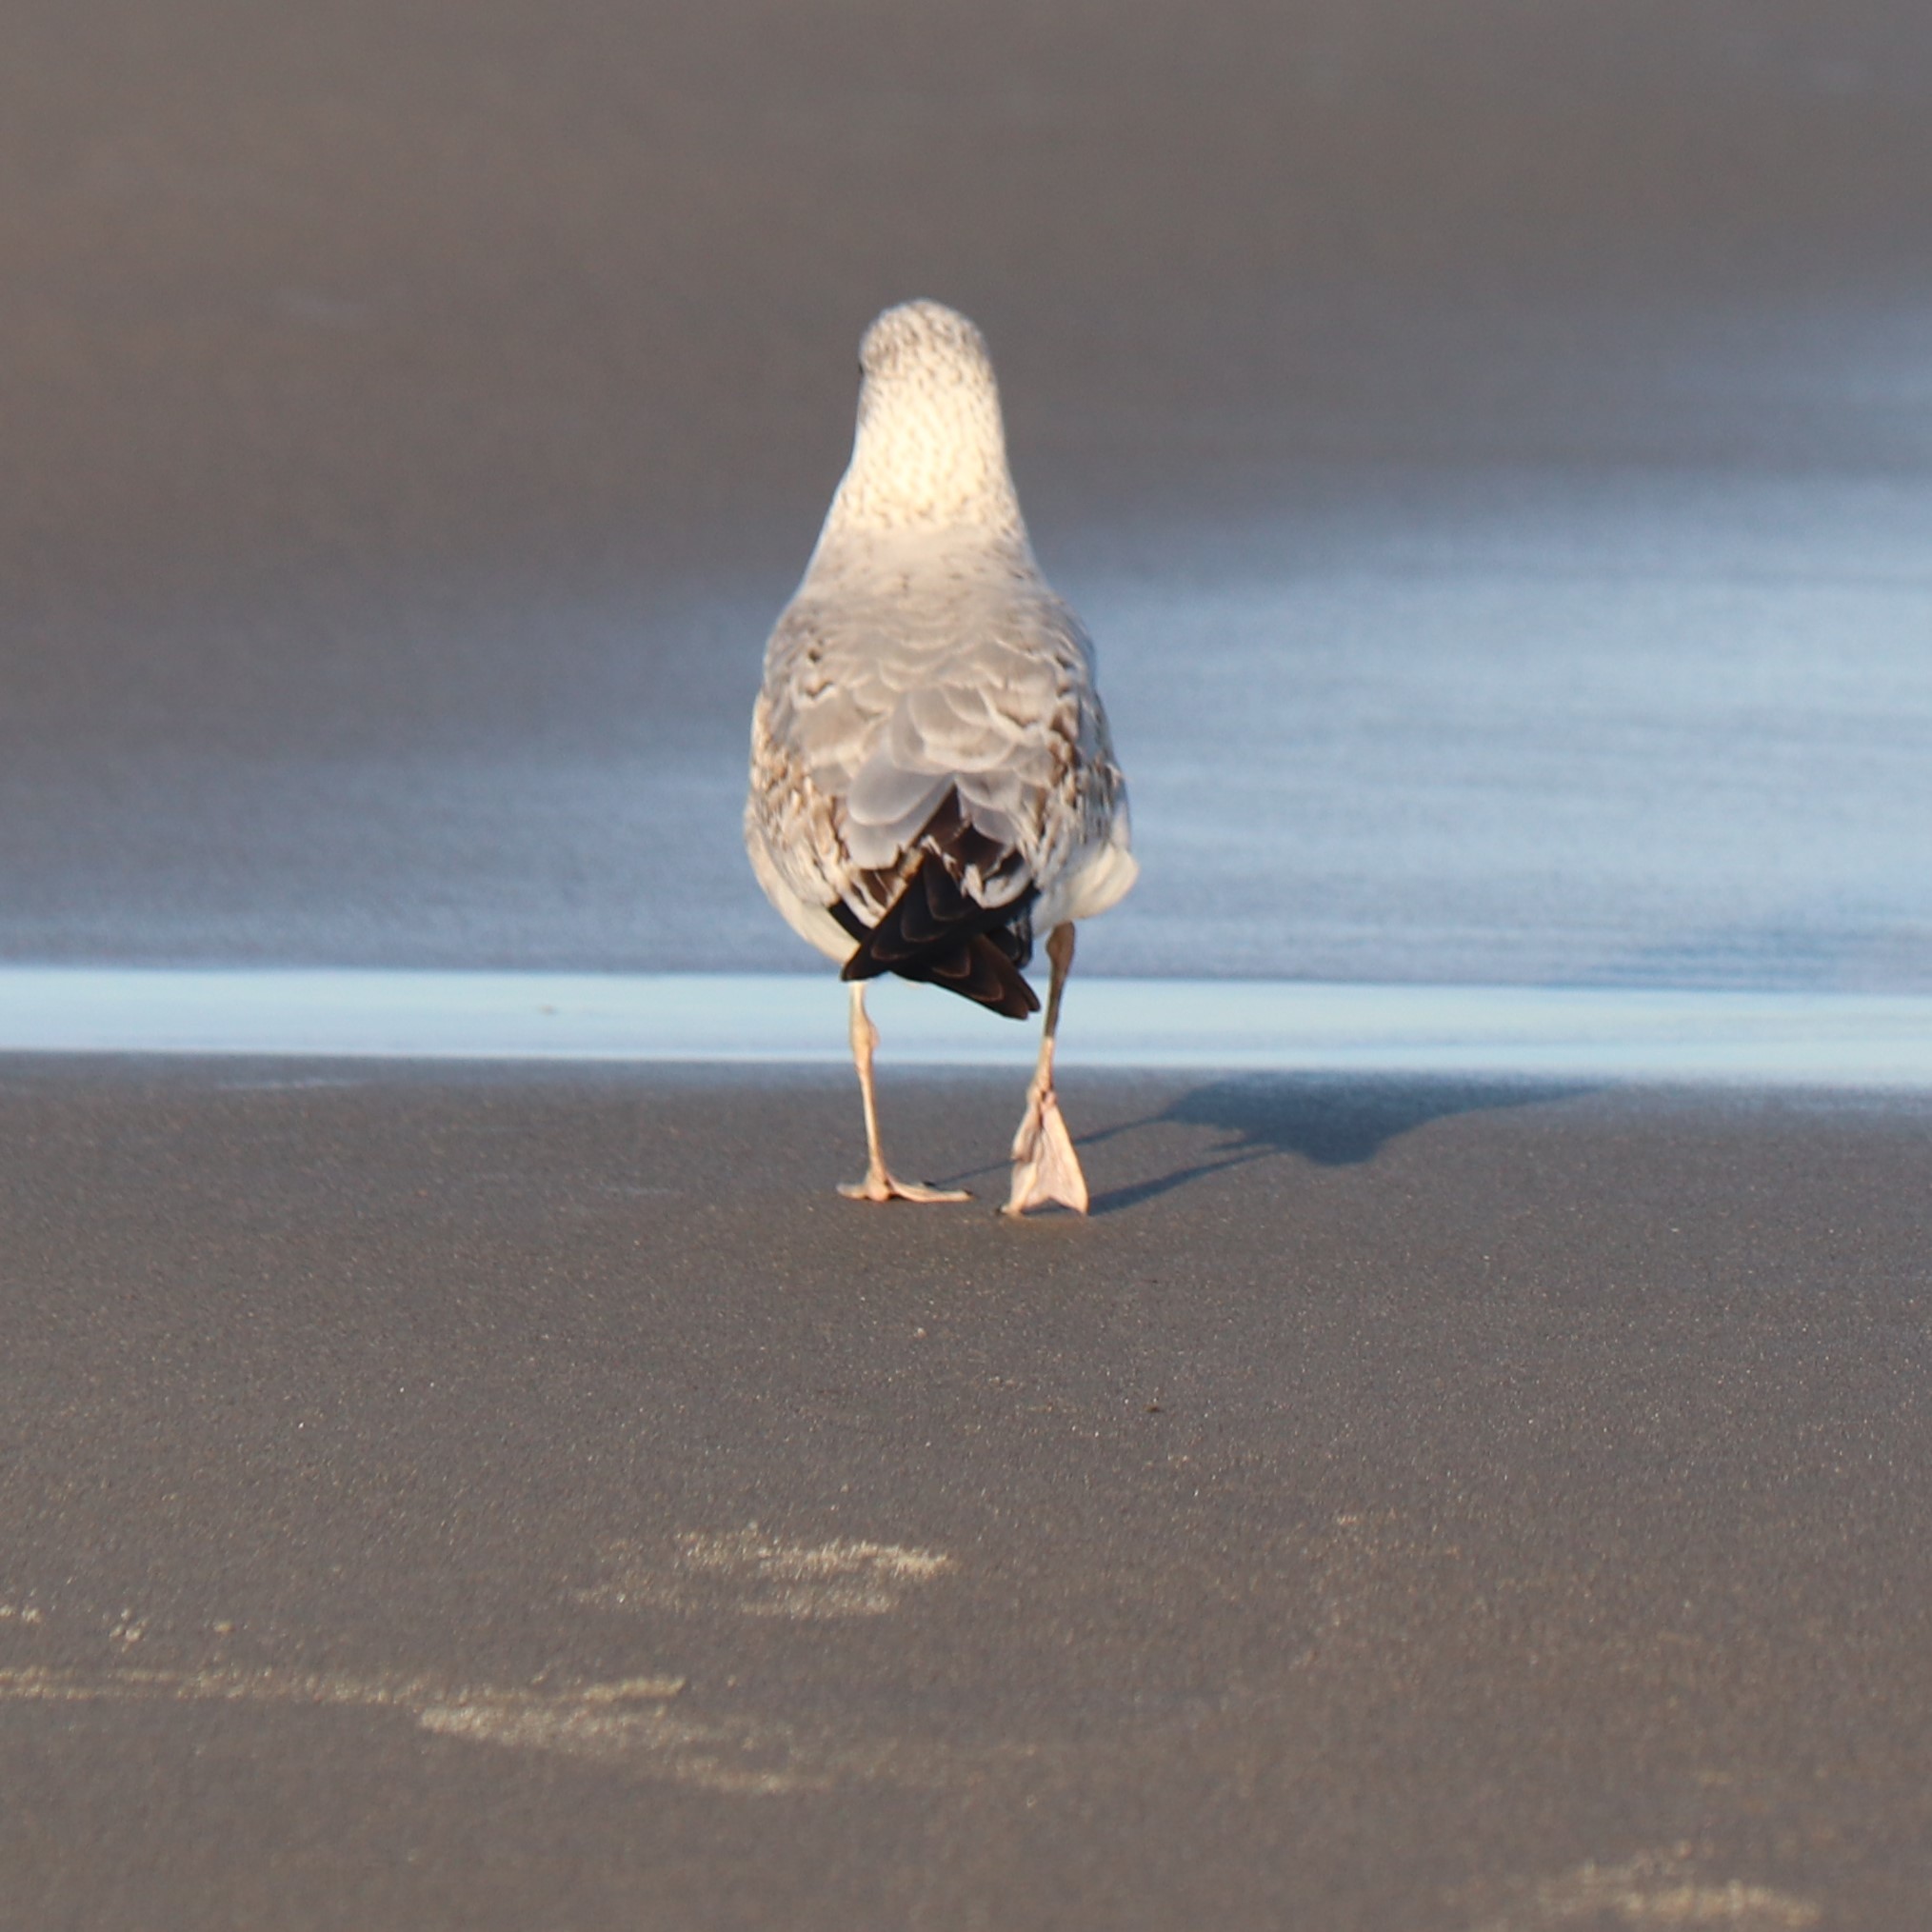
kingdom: Animalia
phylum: Chordata
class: Aves
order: Charadriiformes
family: Laridae
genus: Larus
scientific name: Larus delawarensis
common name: Ring-billed gull
